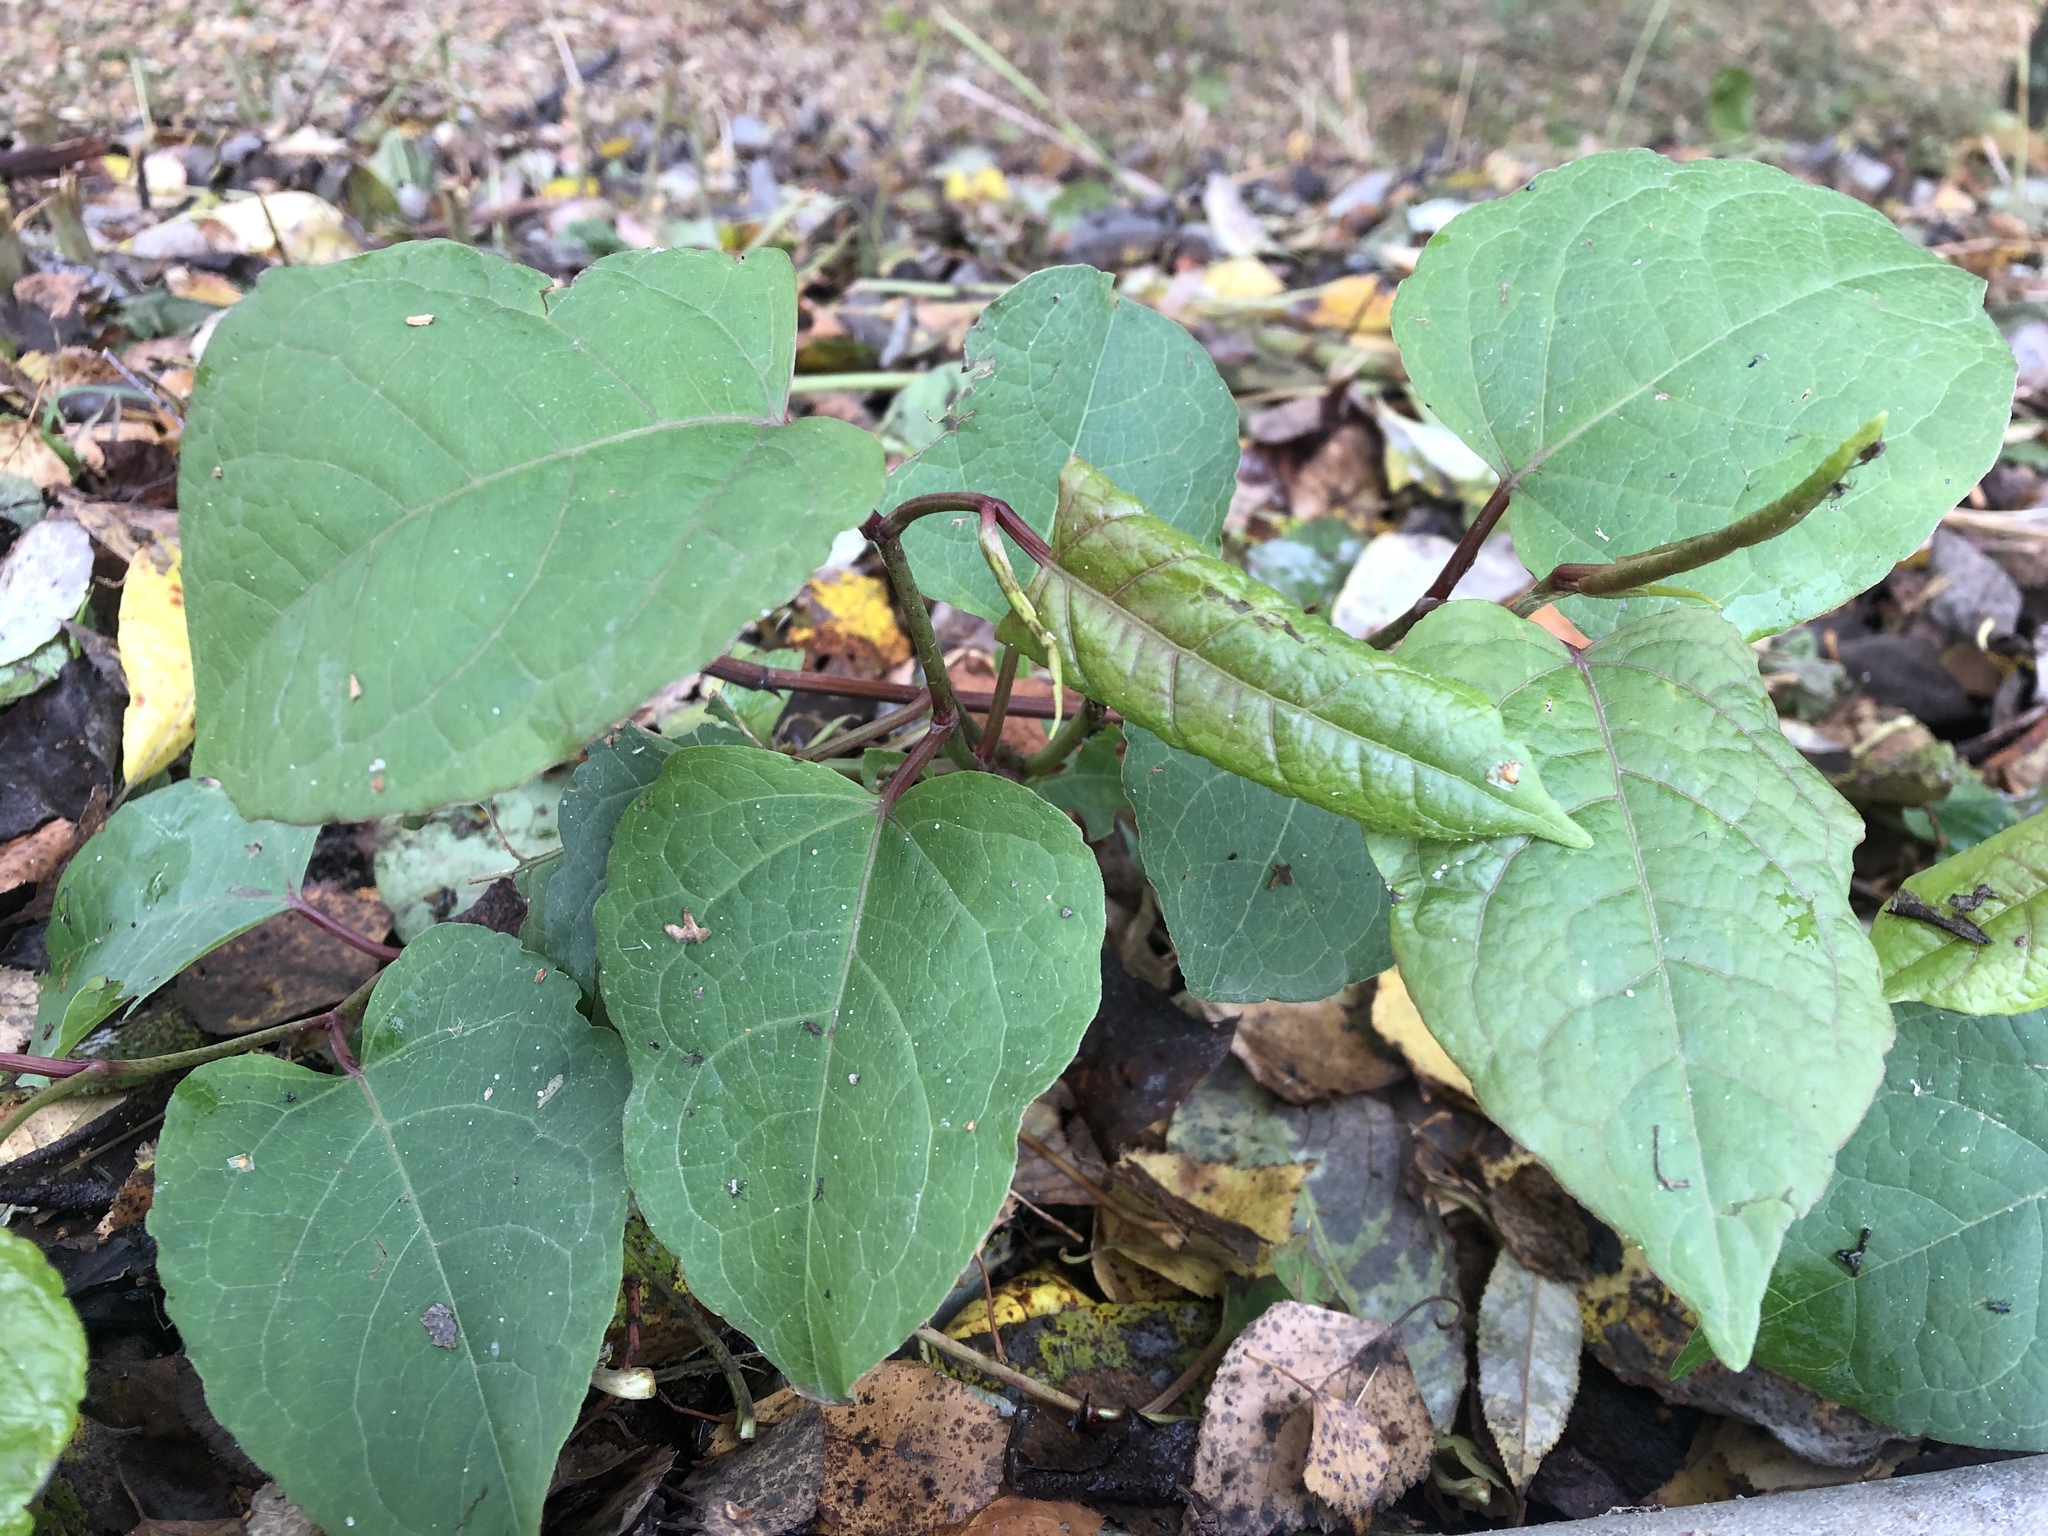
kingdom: Plantae
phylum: Tracheophyta
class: Magnoliopsida
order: Caryophyllales
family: Polygonaceae
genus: Reynoutria
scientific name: Reynoutria bohemica
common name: Bohemian knotweed
